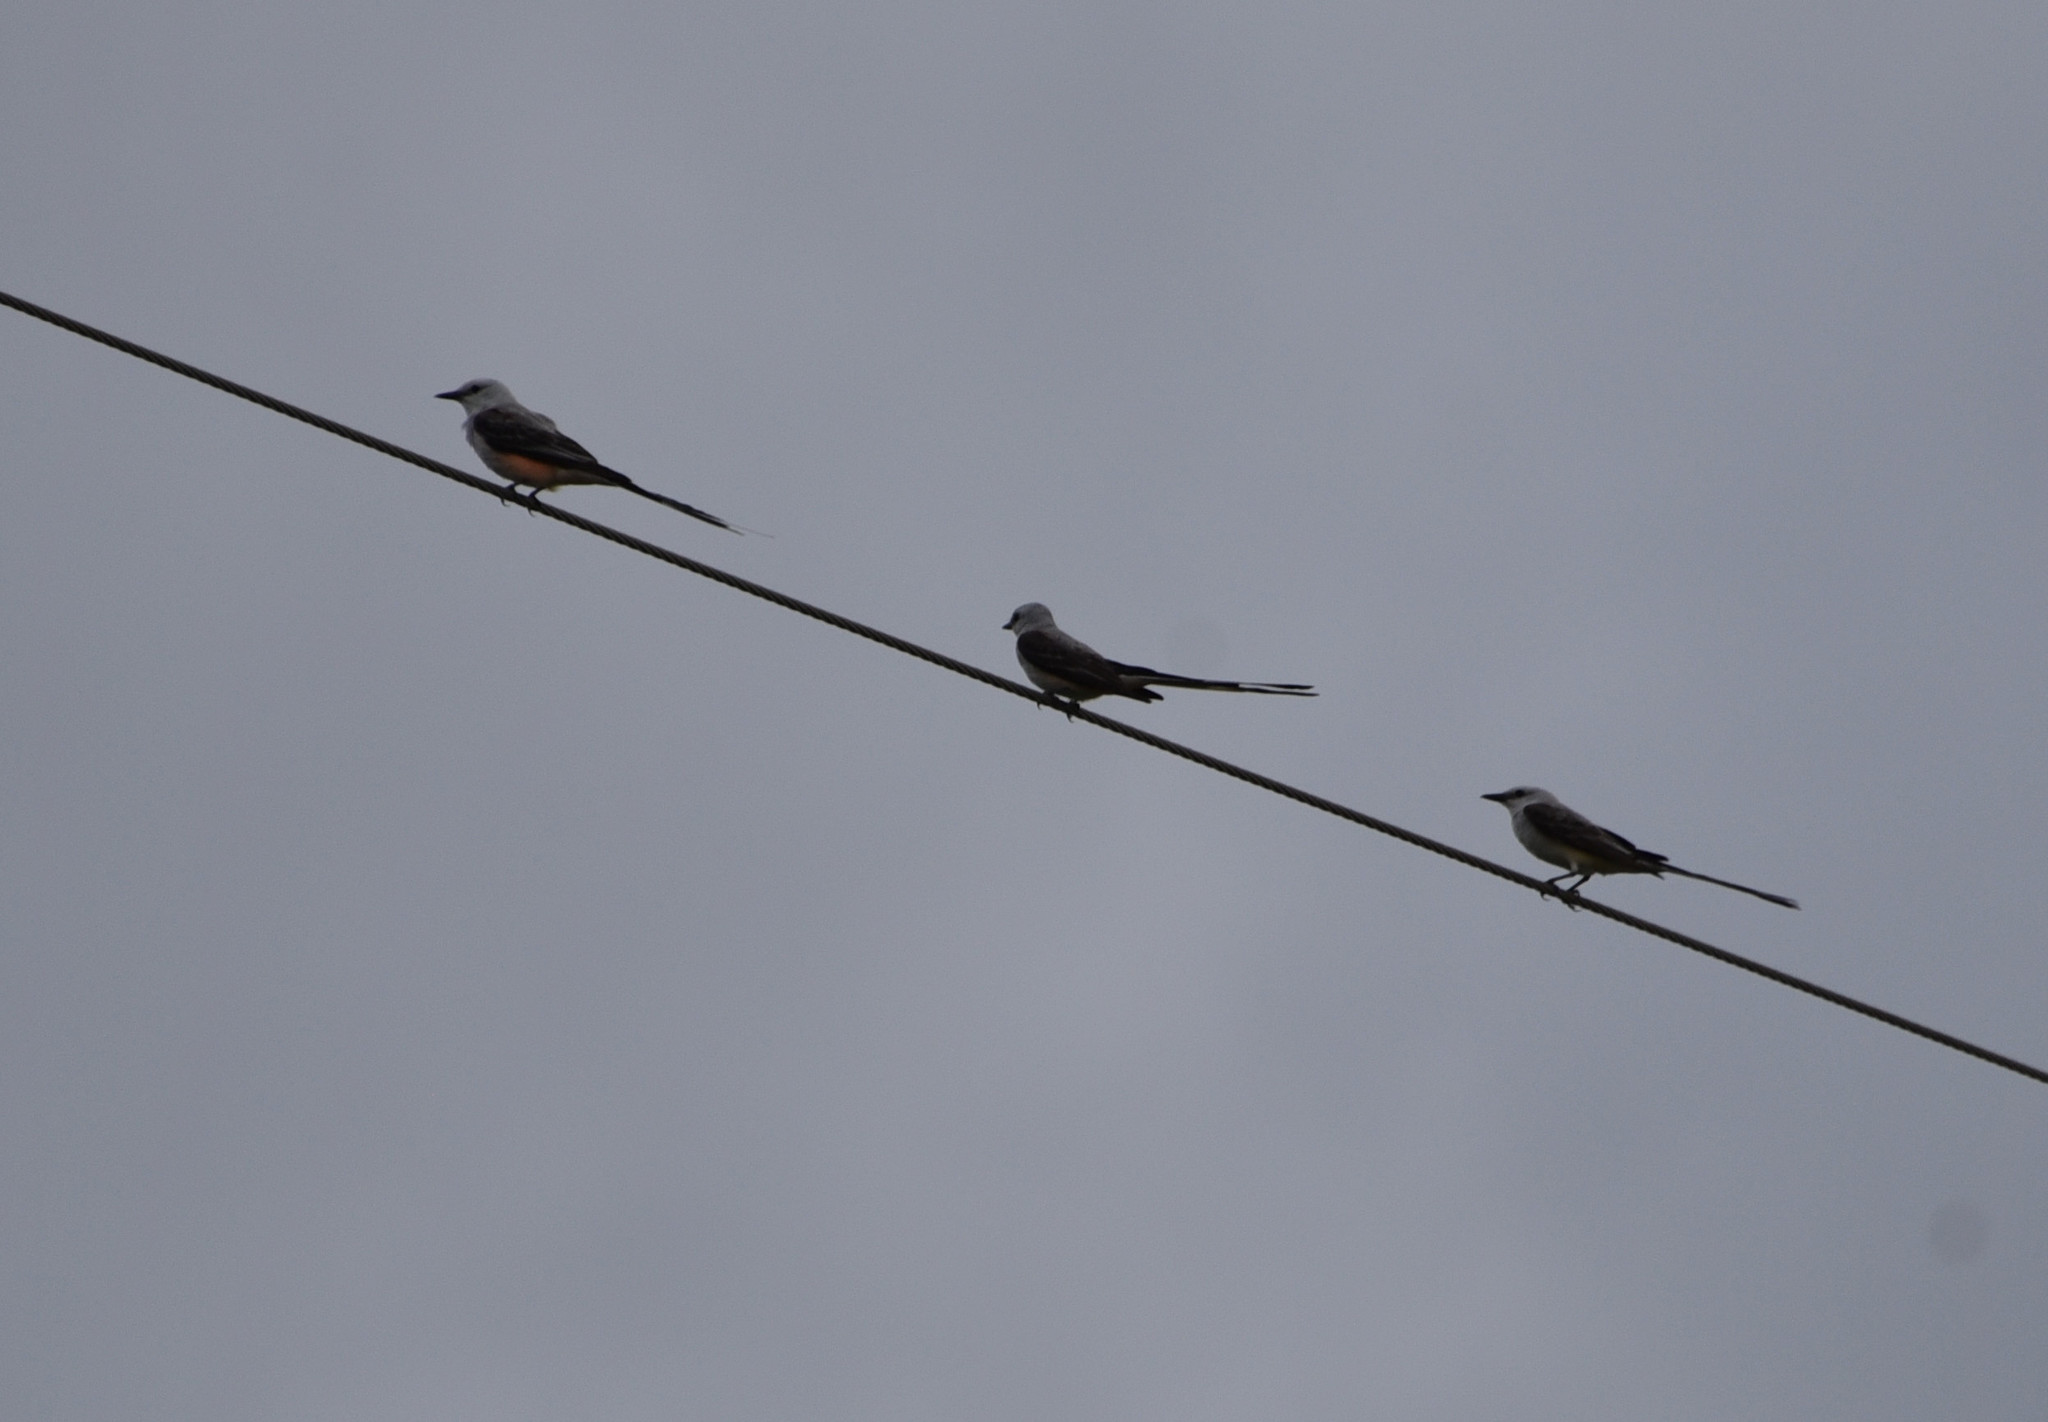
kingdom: Animalia
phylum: Chordata
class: Aves
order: Passeriformes
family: Tyrannidae
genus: Tyrannus
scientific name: Tyrannus forficatus
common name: Scissor-tailed flycatcher
